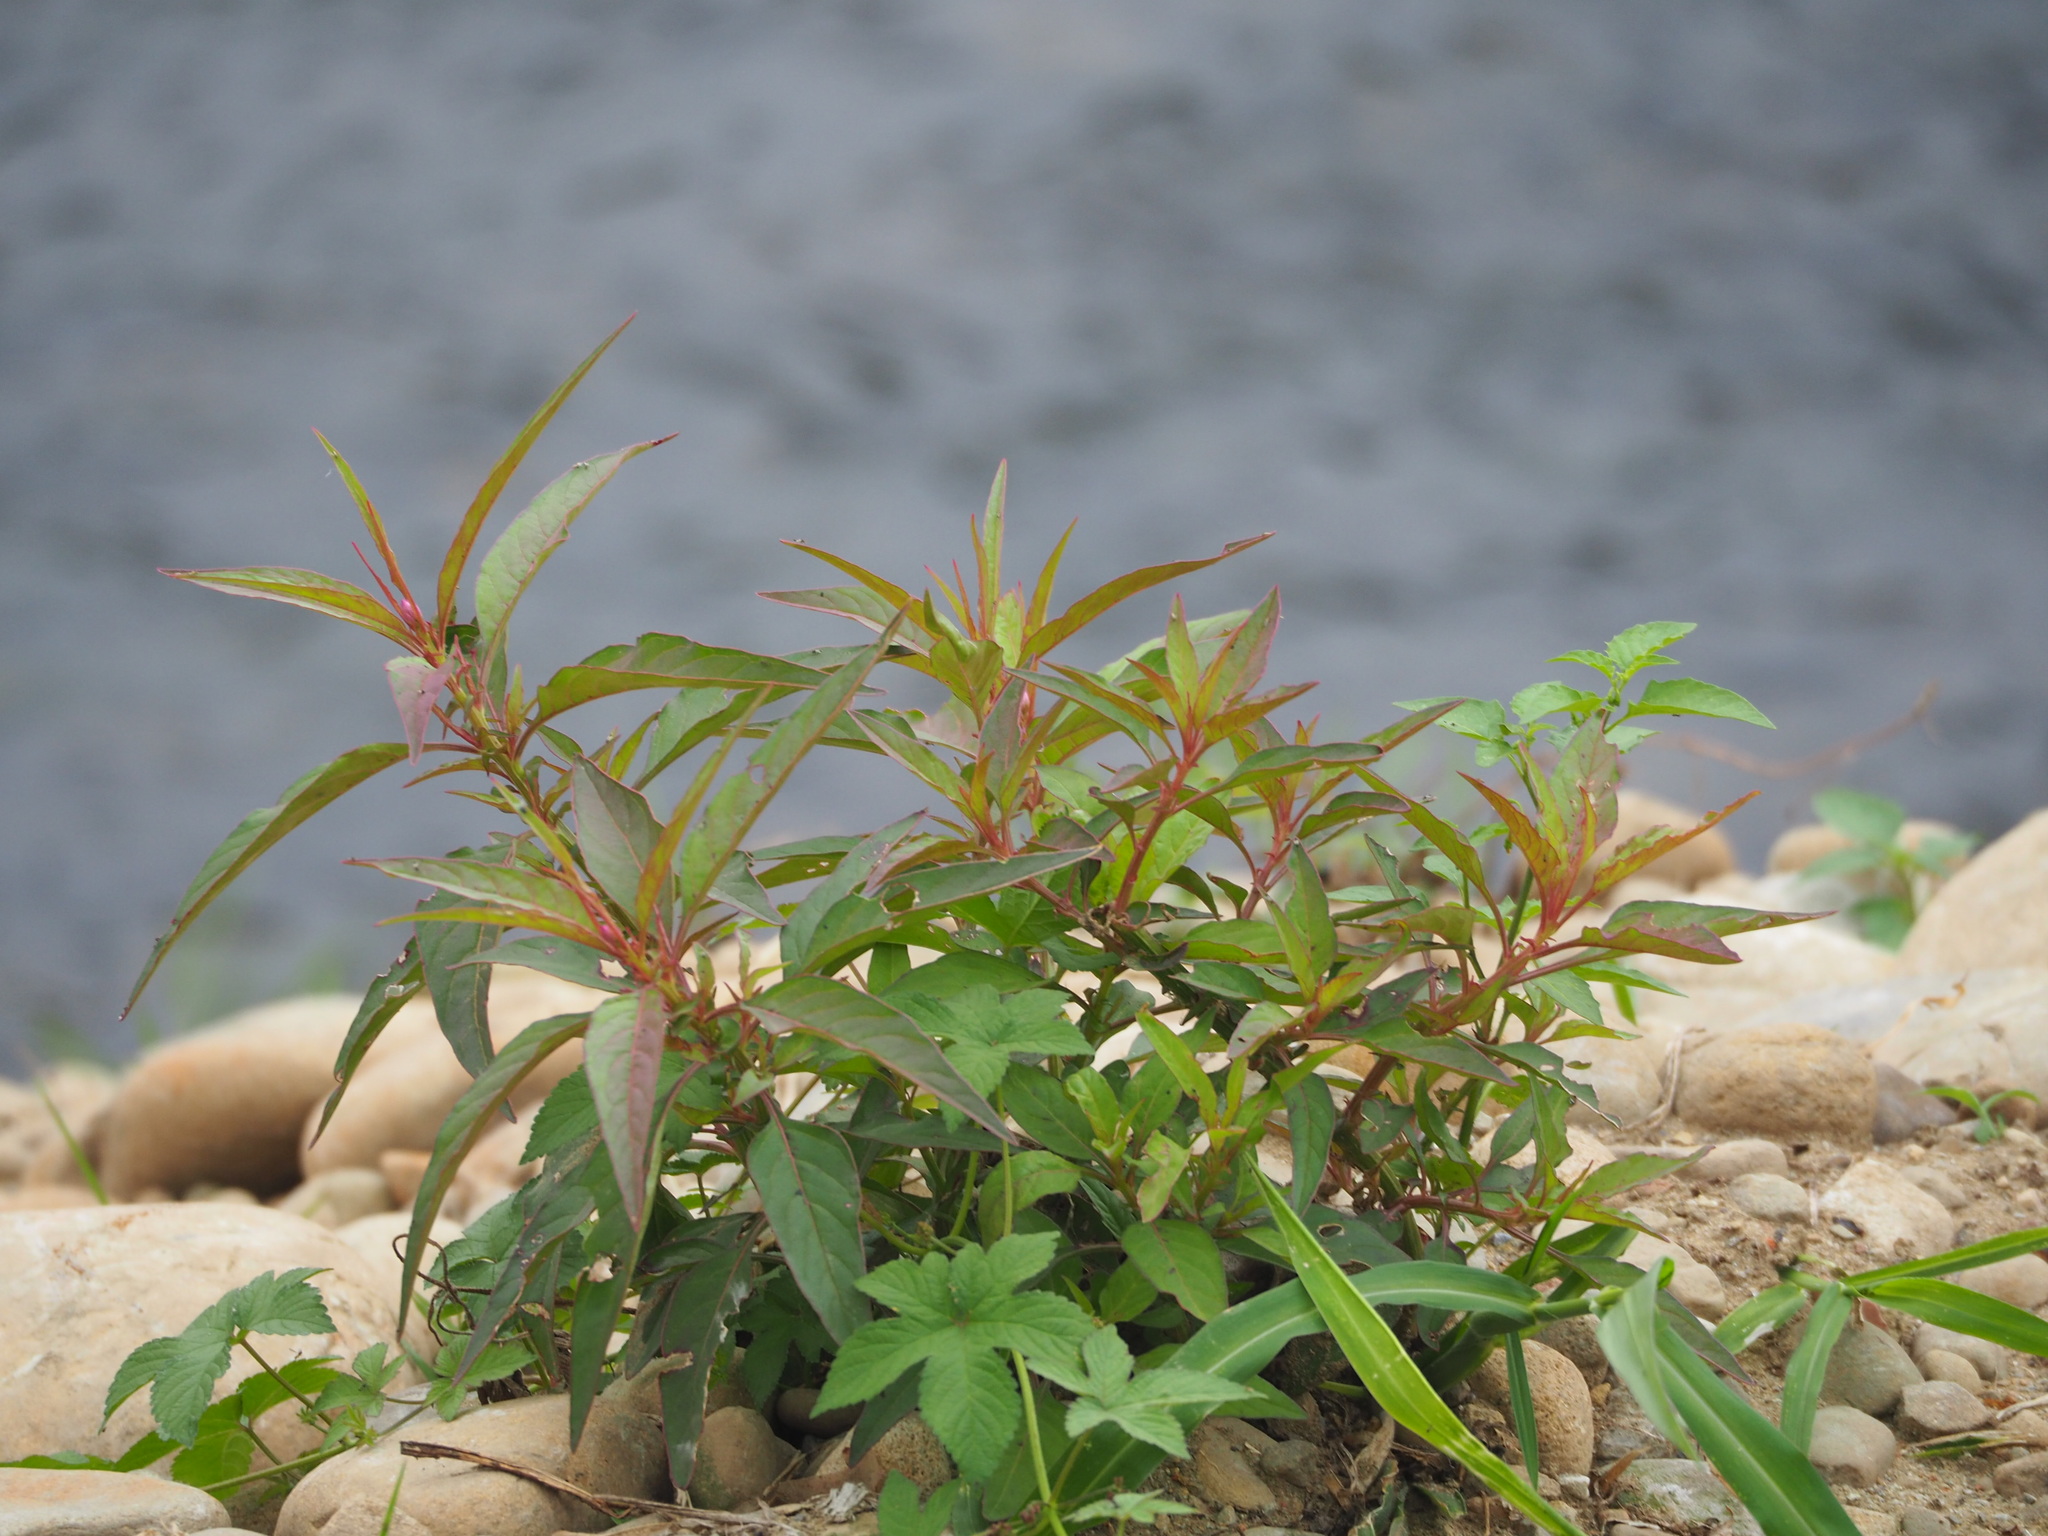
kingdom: Plantae
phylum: Tracheophyta
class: Magnoliopsida
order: Caryophyllales
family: Amaranthaceae
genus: Celosia
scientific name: Celosia argentea
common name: Feather cockscomb
